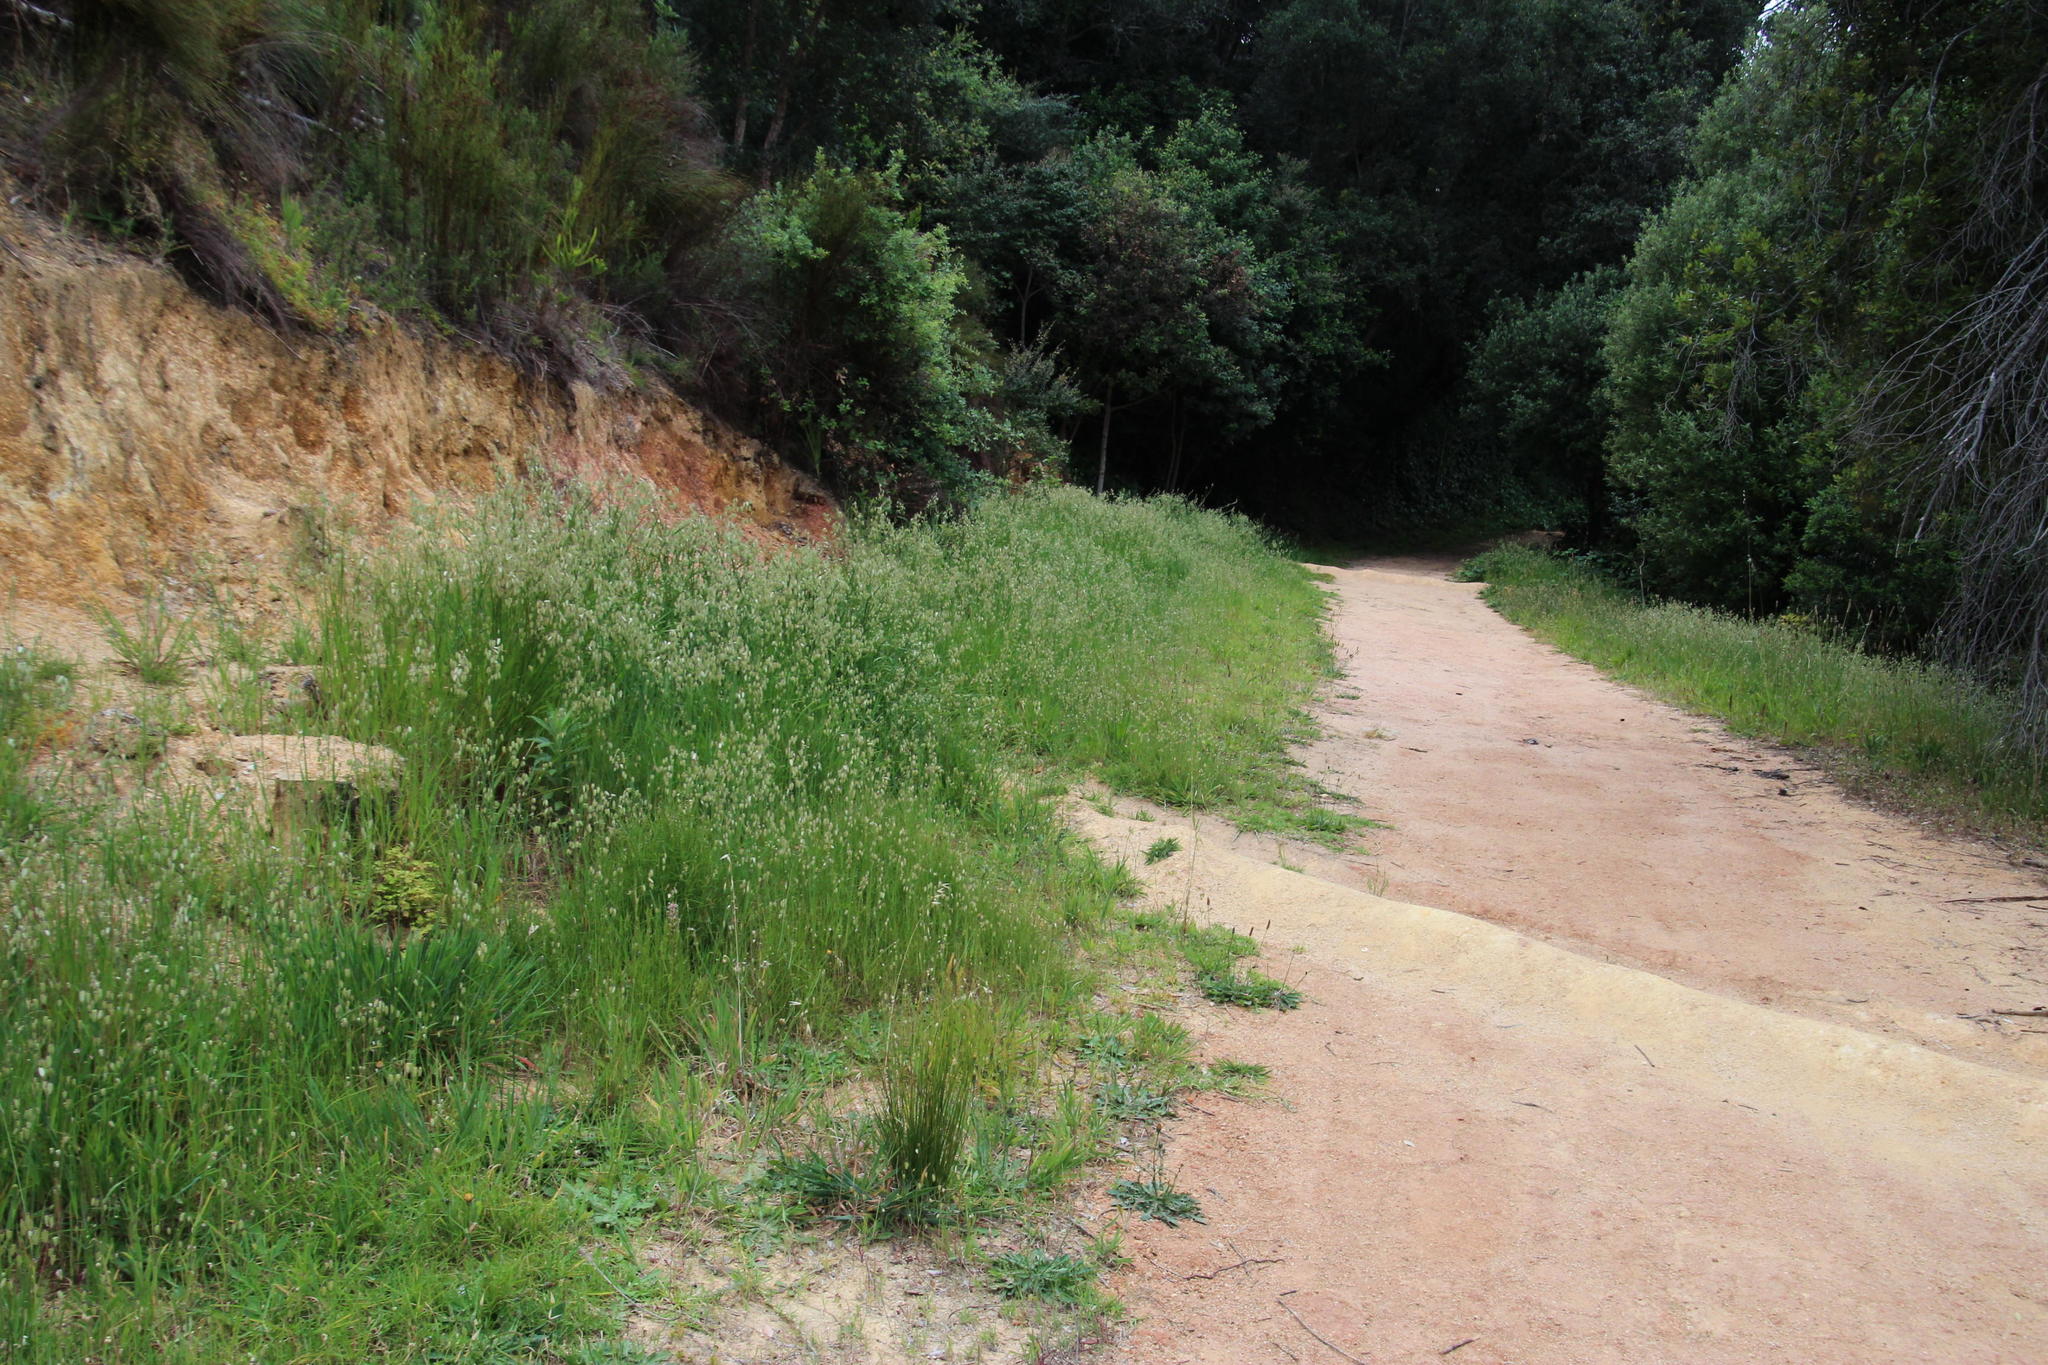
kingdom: Plantae
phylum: Tracheophyta
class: Liliopsida
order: Poales
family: Poaceae
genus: Briza
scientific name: Briza maxima
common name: Big quakinggrass
